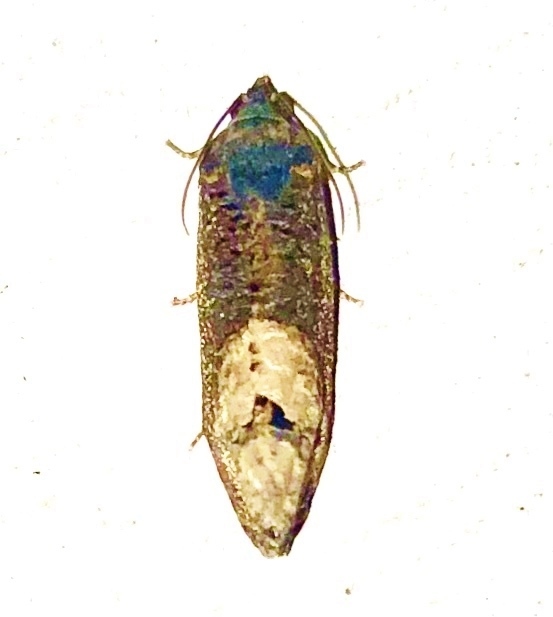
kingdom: Animalia
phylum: Arthropoda
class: Insecta
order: Lepidoptera
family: Tortricidae
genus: Ecdytolopha
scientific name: Ecdytolopha insiticiana
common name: Locust twig borer moth
